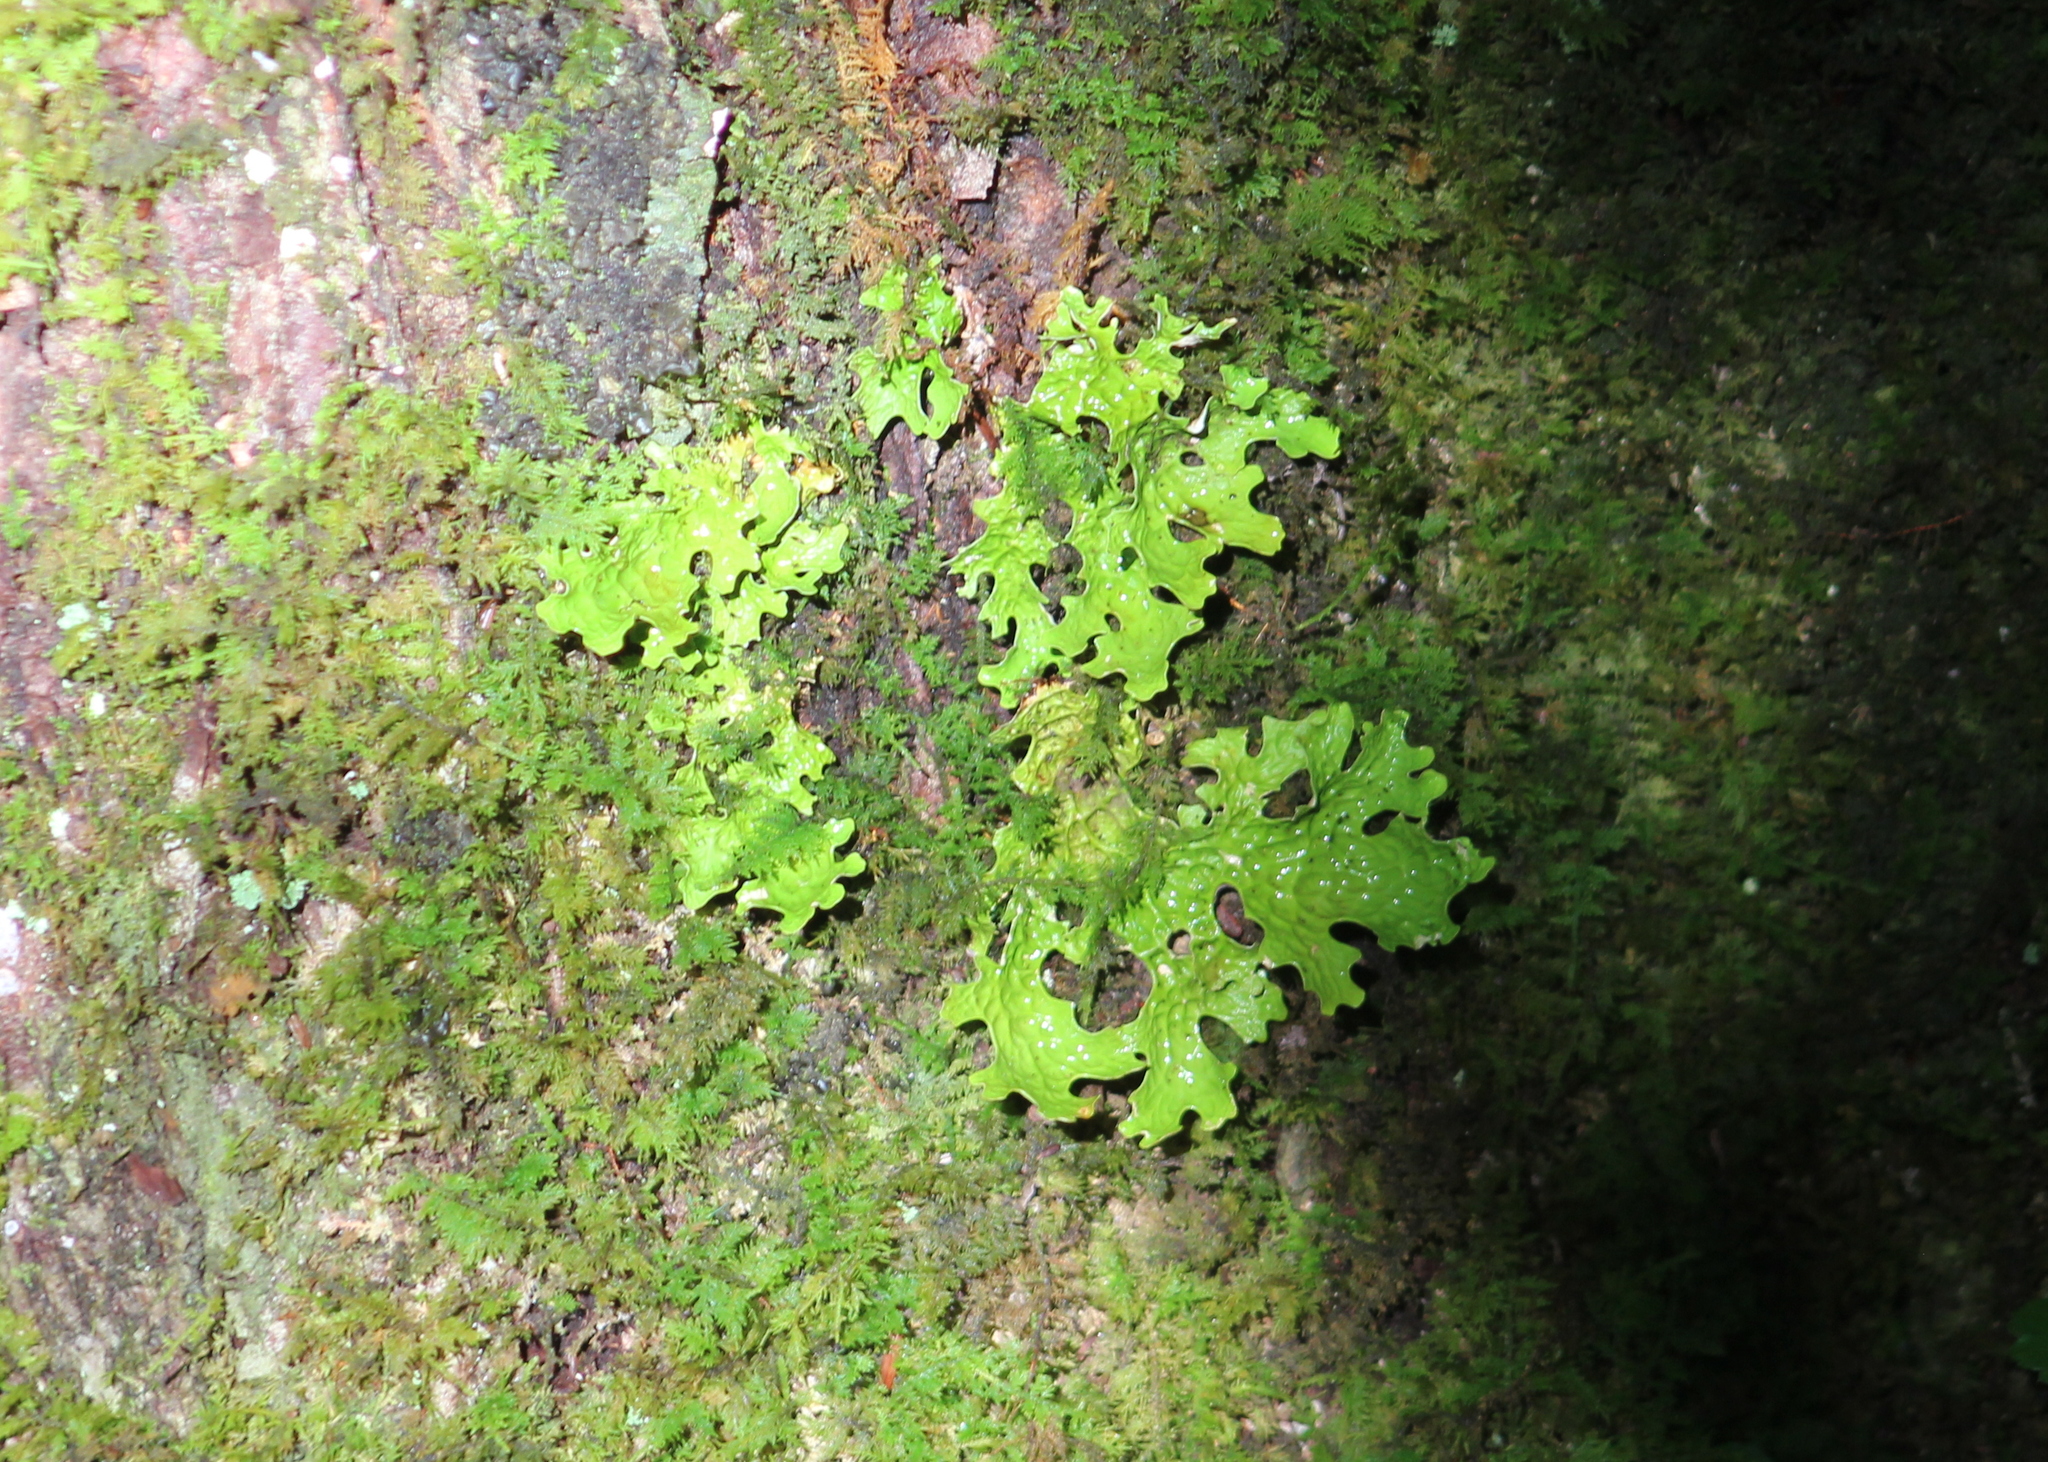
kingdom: Fungi
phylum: Ascomycota
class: Lecanoromycetes
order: Peltigerales
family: Lobariaceae
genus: Lobaria
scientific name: Lobaria pulmonaria
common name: Lungwort
